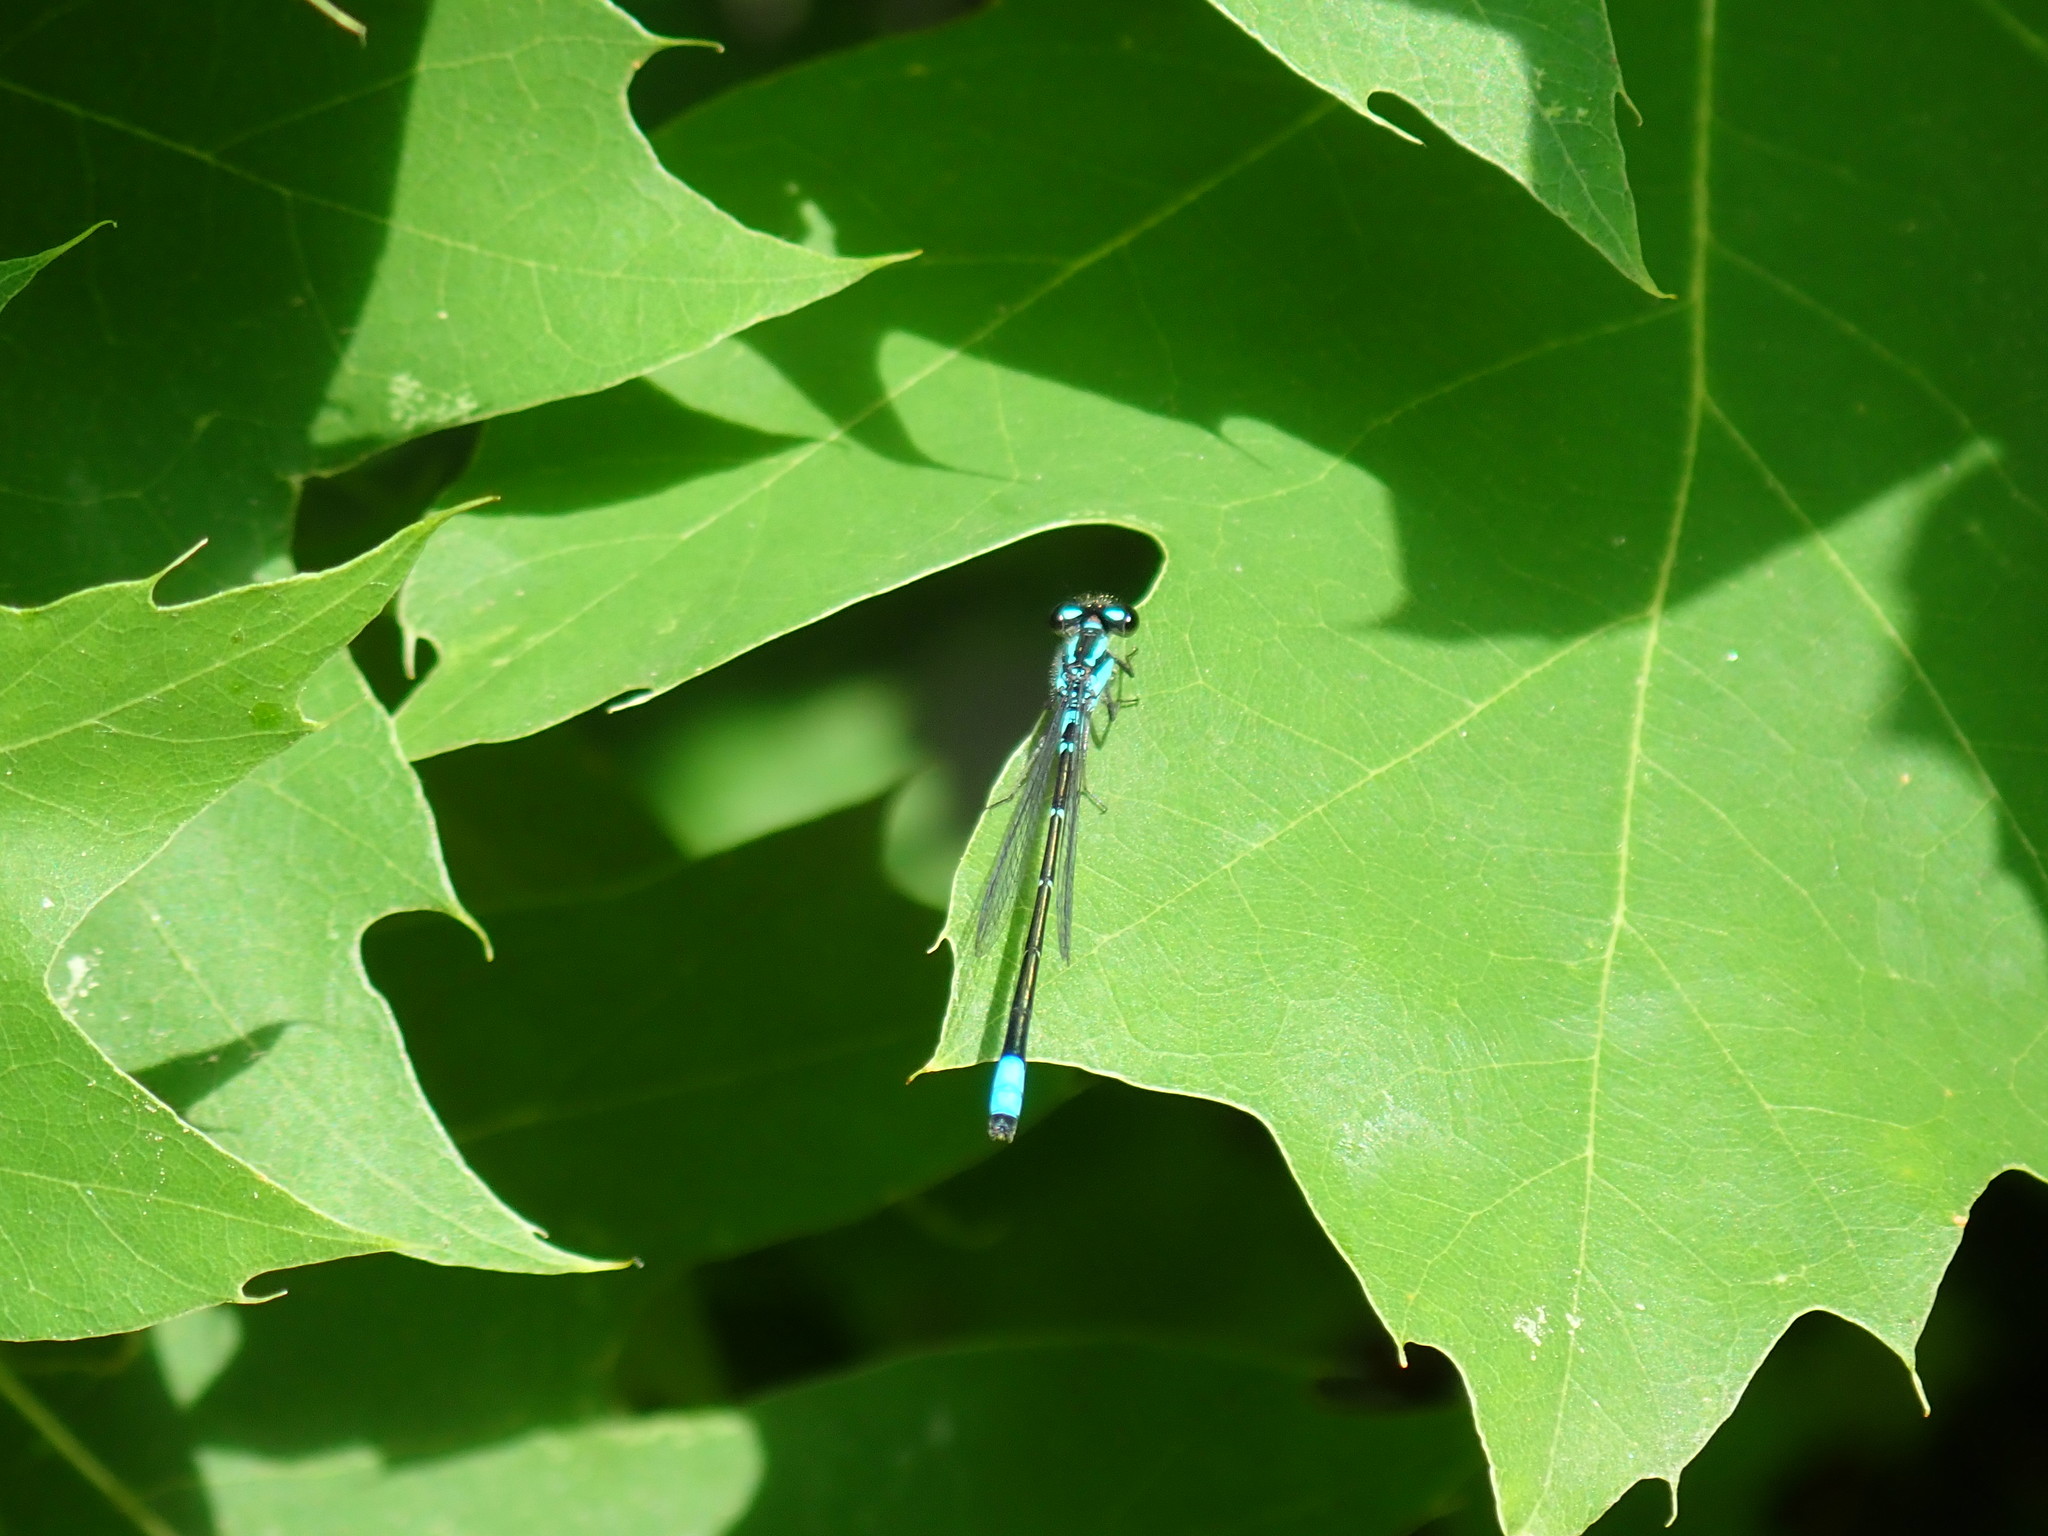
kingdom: Animalia
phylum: Arthropoda
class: Insecta
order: Odonata
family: Coenagrionidae
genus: Enallagma
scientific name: Enallagma geminatum
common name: Skimming bluet
